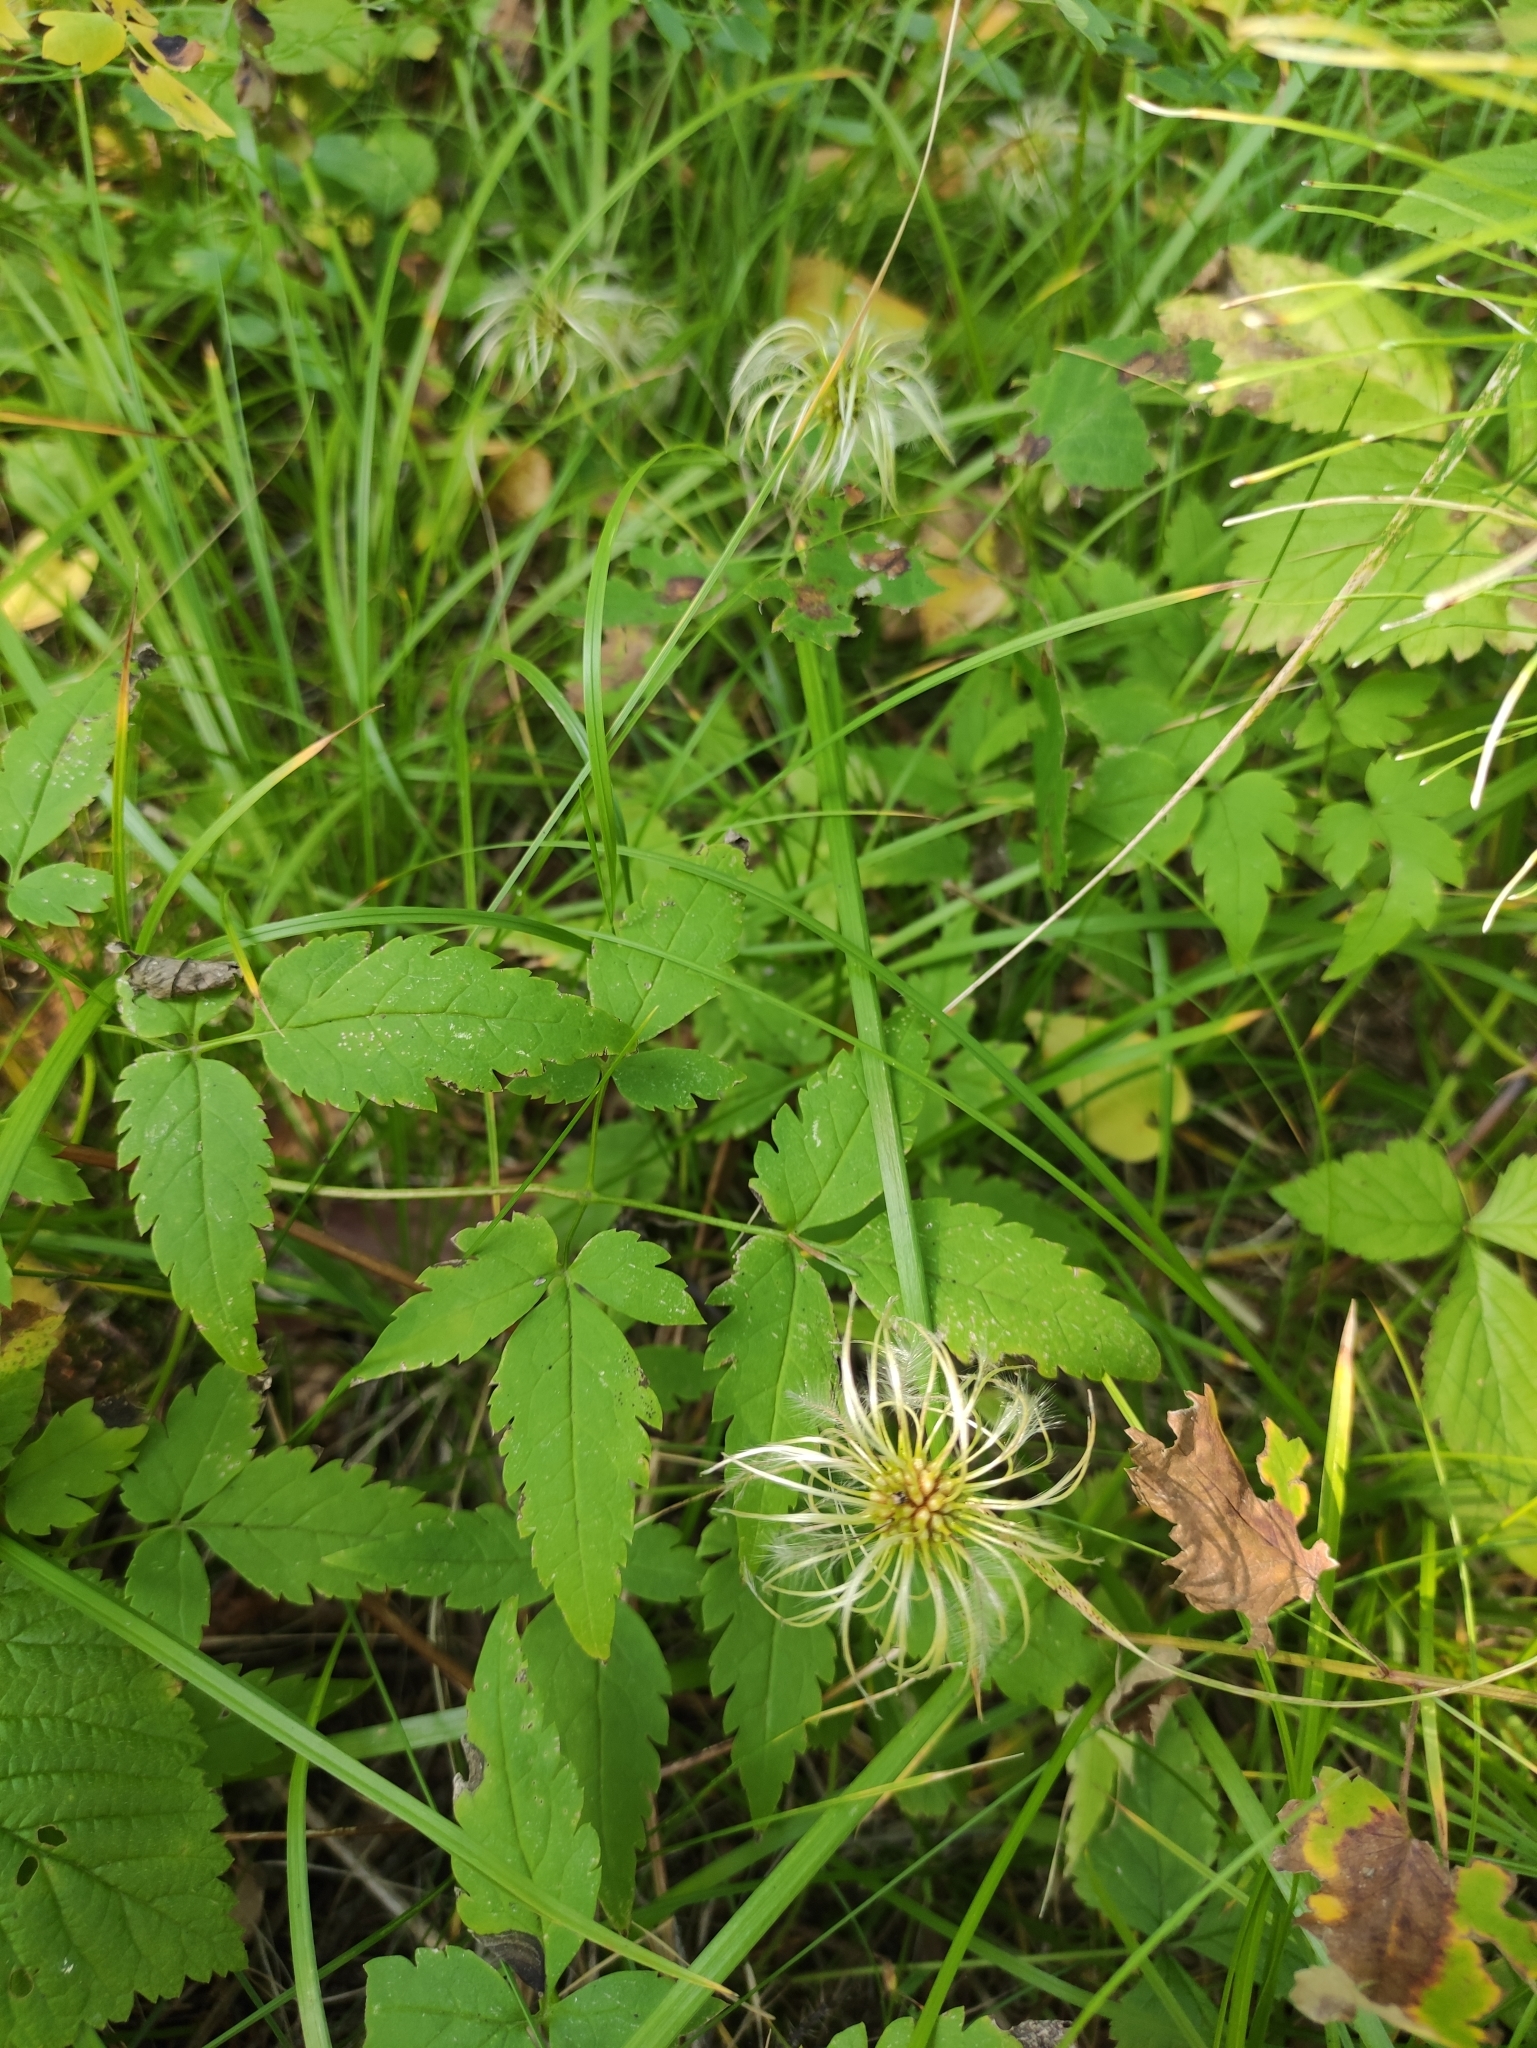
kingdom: Plantae
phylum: Tracheophyta
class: Magnoliopsida
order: Ranunculales
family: Ranunculaceae
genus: Clematis
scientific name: Clematis sibirica
